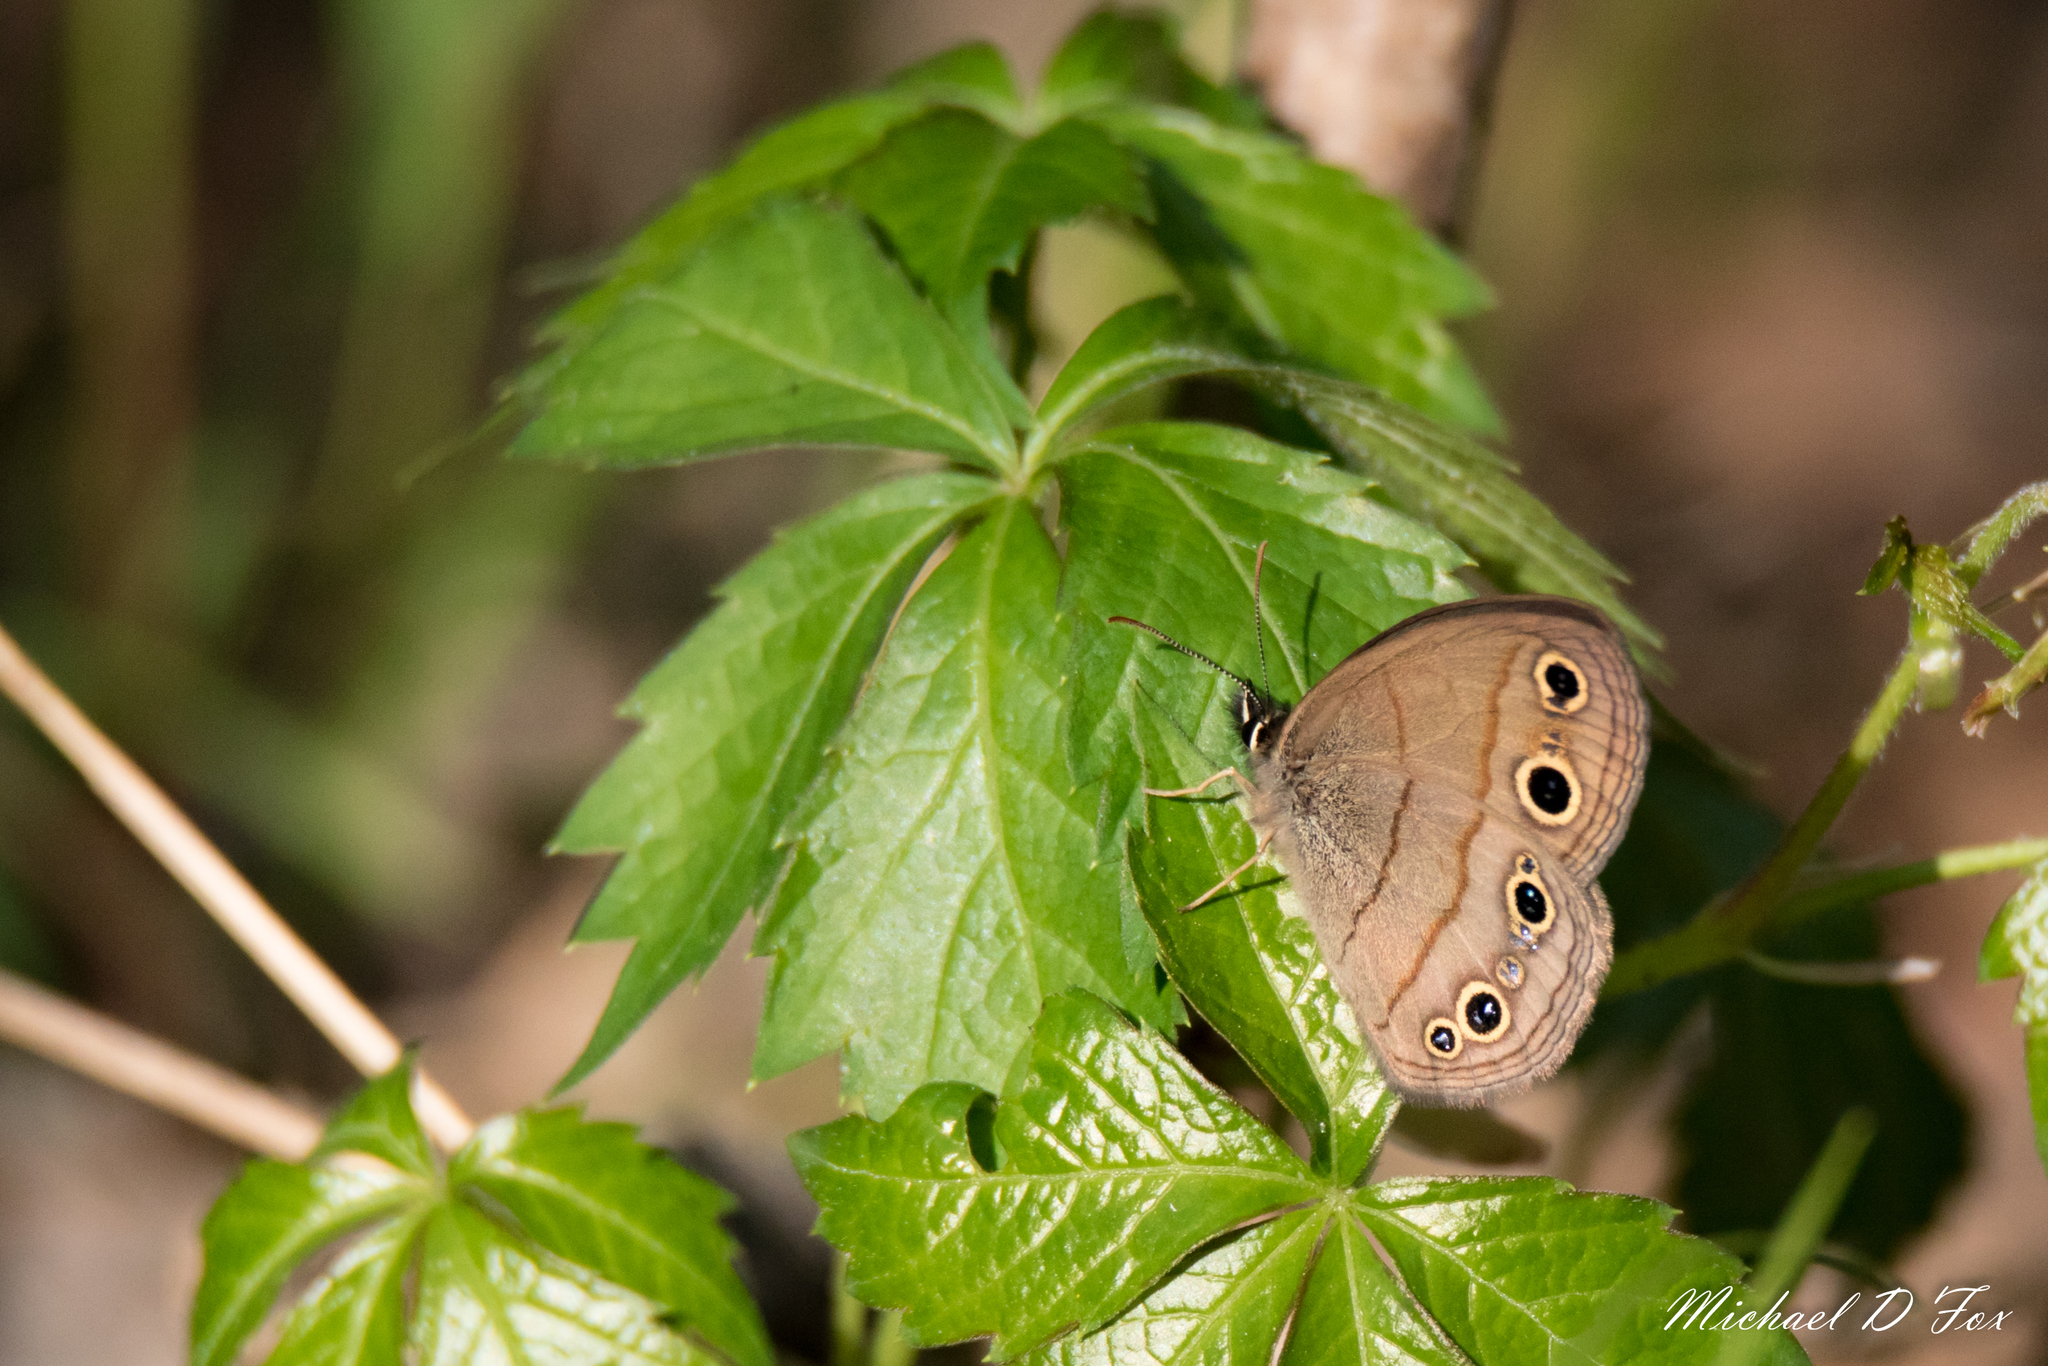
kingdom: Animalia
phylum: Arthropoda
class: Insecta
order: Lepidoptera
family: Nymphalidae
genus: Euptychia
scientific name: Euptychia cymela
